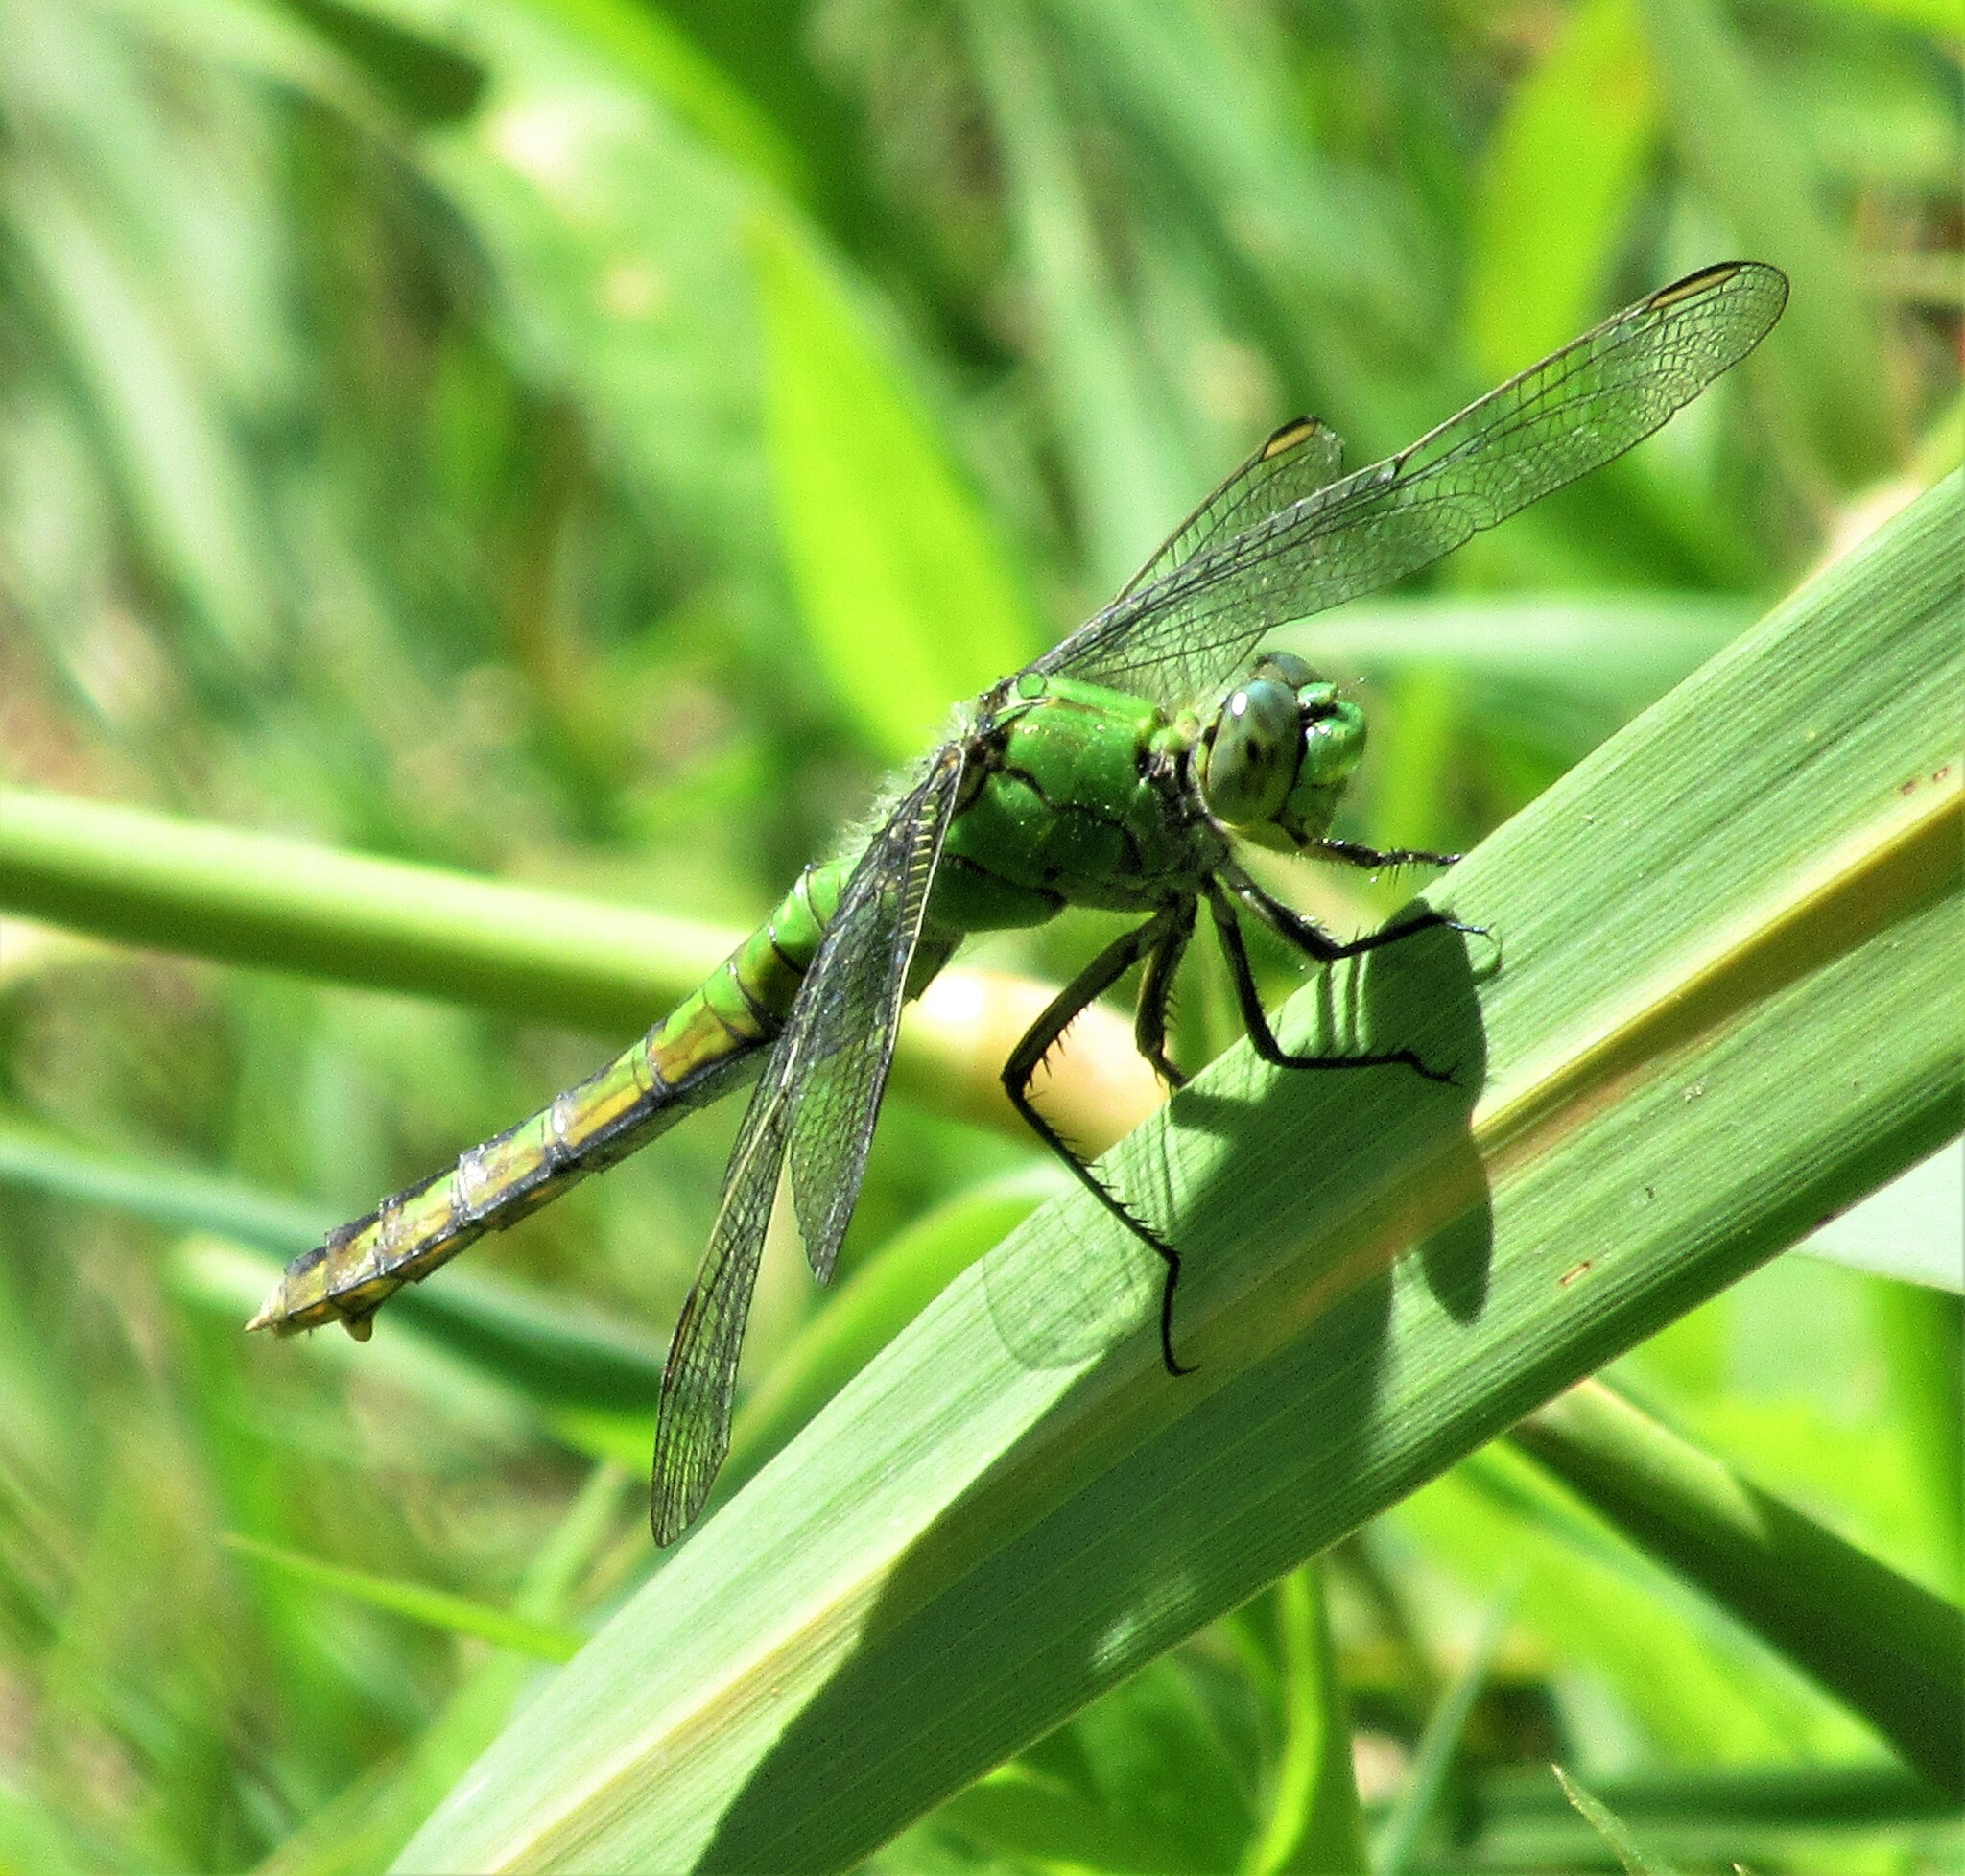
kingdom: Animalia
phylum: Arthropoda
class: Insecta
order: Odonata
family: Libellulidae
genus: Erythemis
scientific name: Erythemis collocata
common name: Western pondhawk
